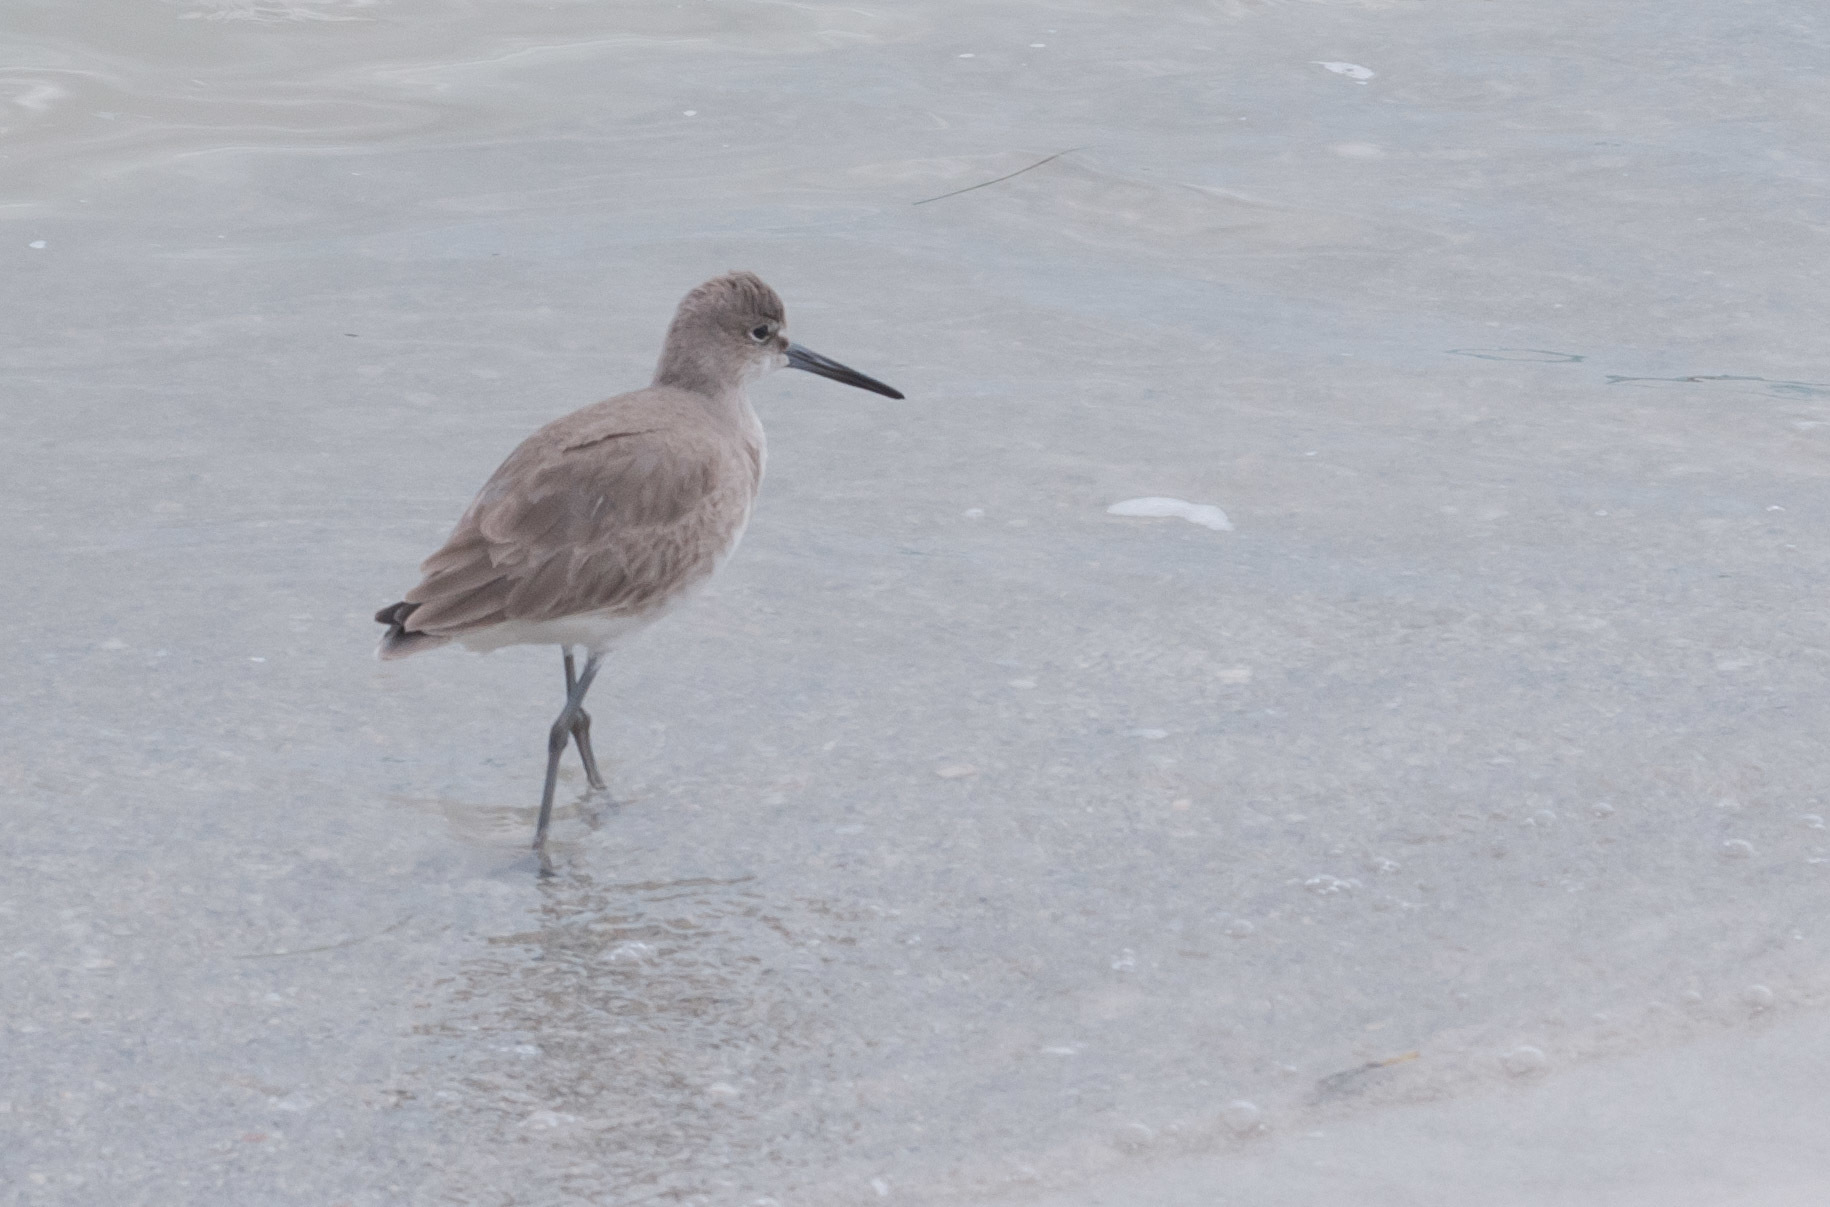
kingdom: Animalia
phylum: Chordata
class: Aves
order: Charadriiformes
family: Scolopacidae
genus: Tringa
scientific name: Tringa semipalmata
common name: Willet
